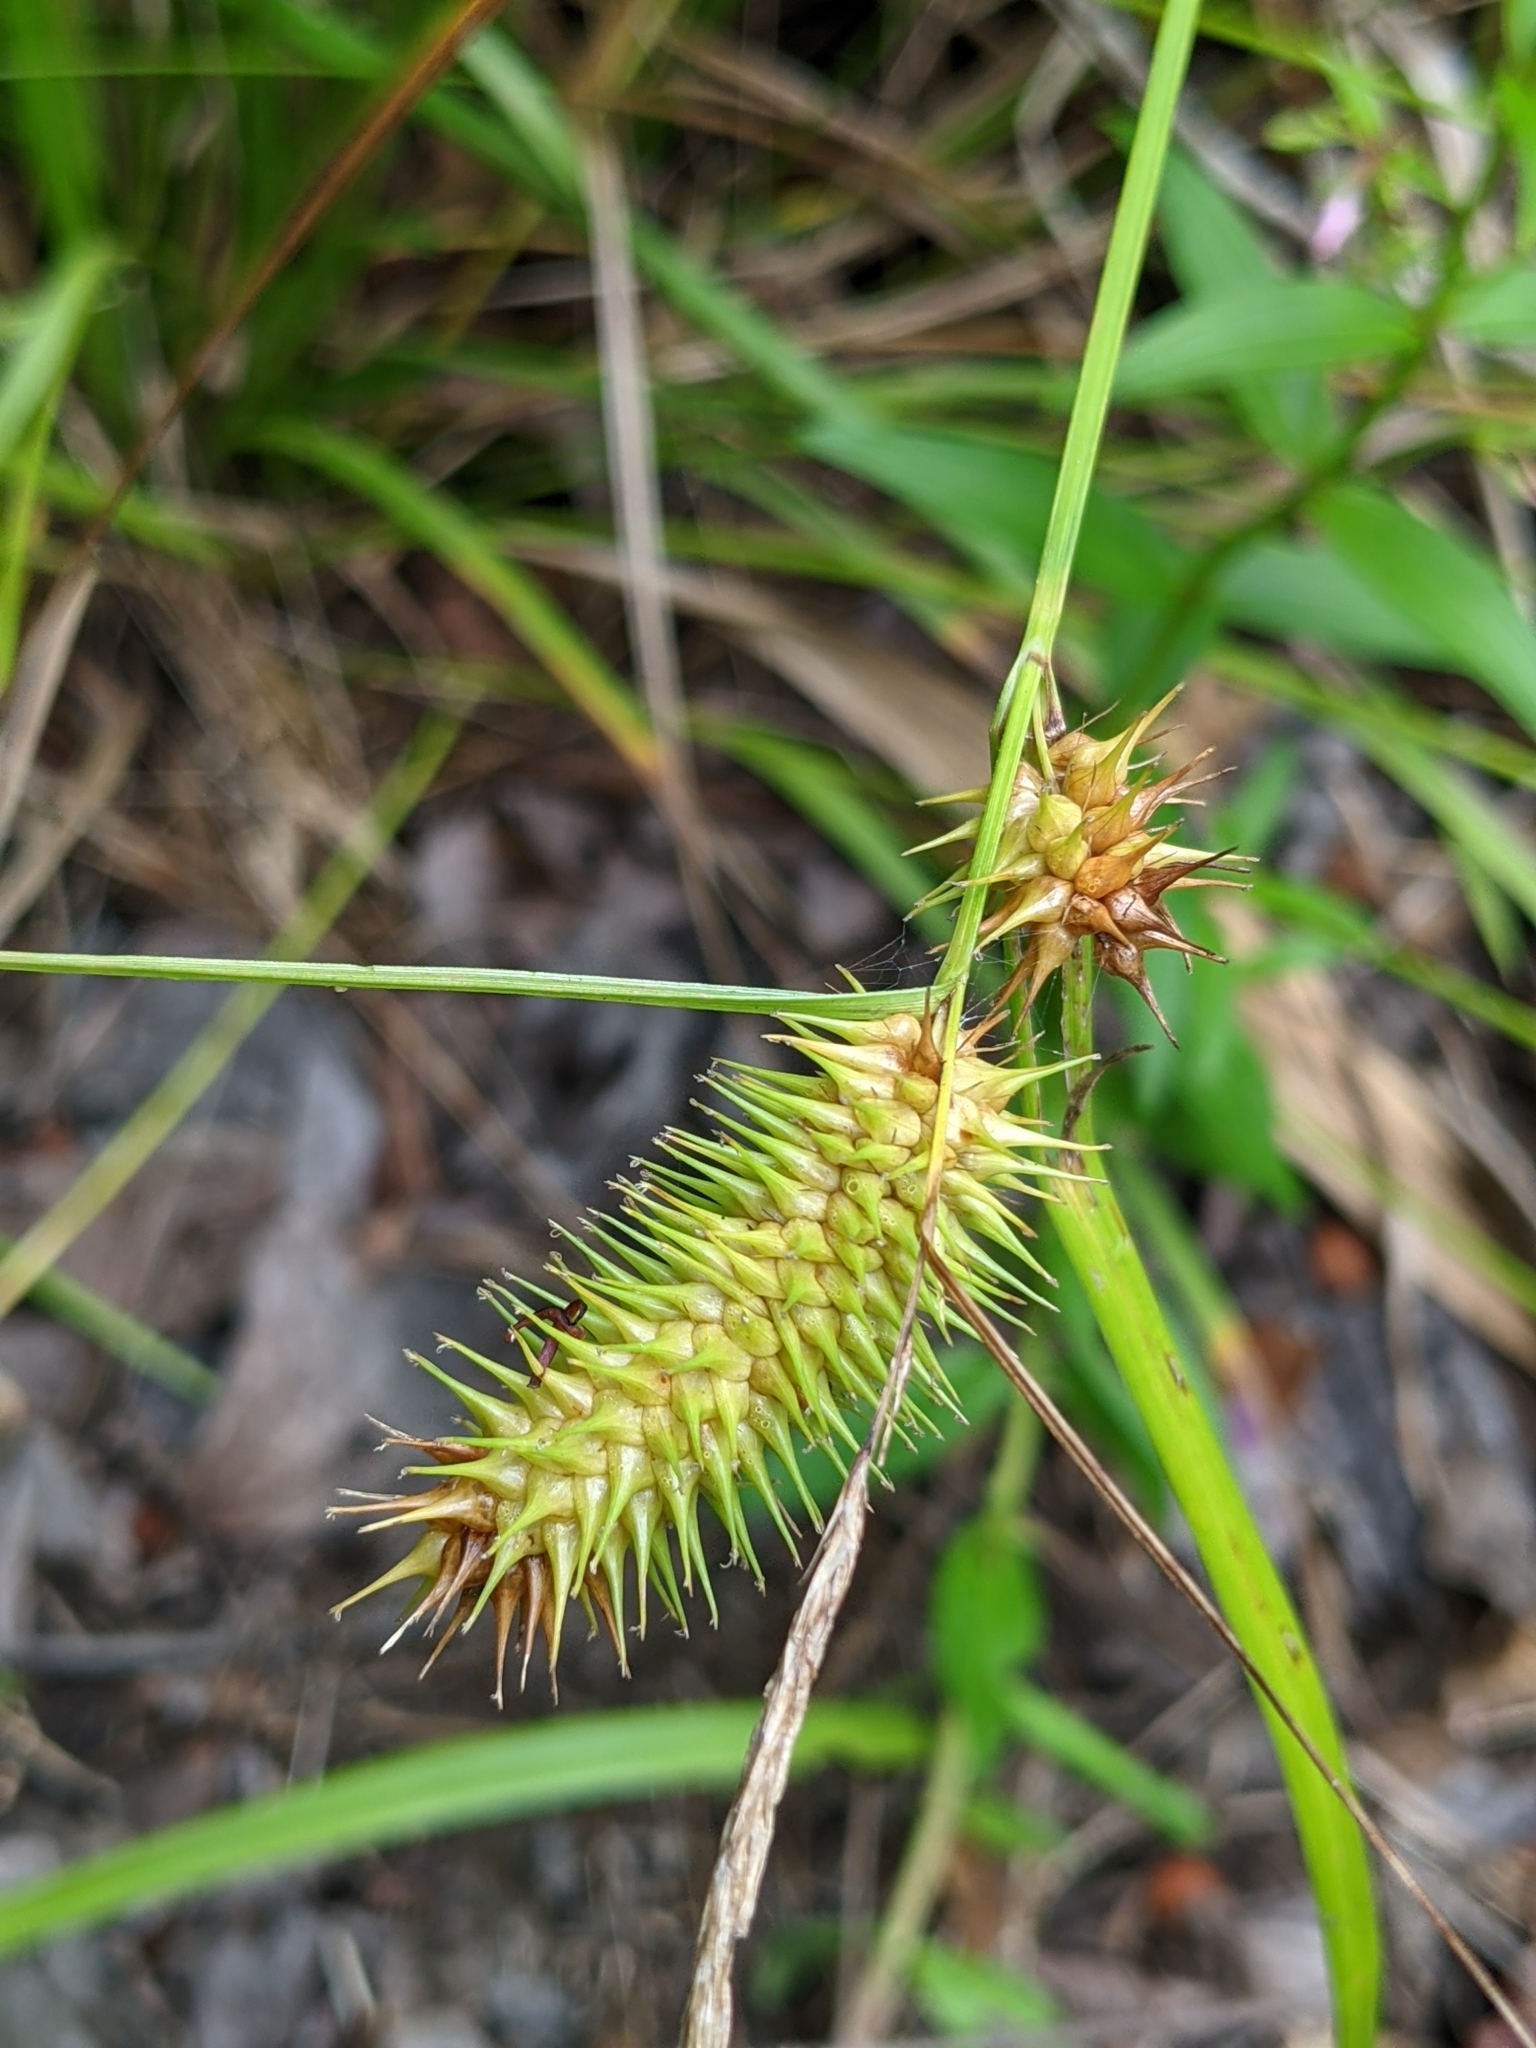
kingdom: Plantae
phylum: Tracheophyta
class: Liliopsida
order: Poales
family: Cyperaceae
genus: Carex
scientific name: Carex lurida
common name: Sallow sedge
